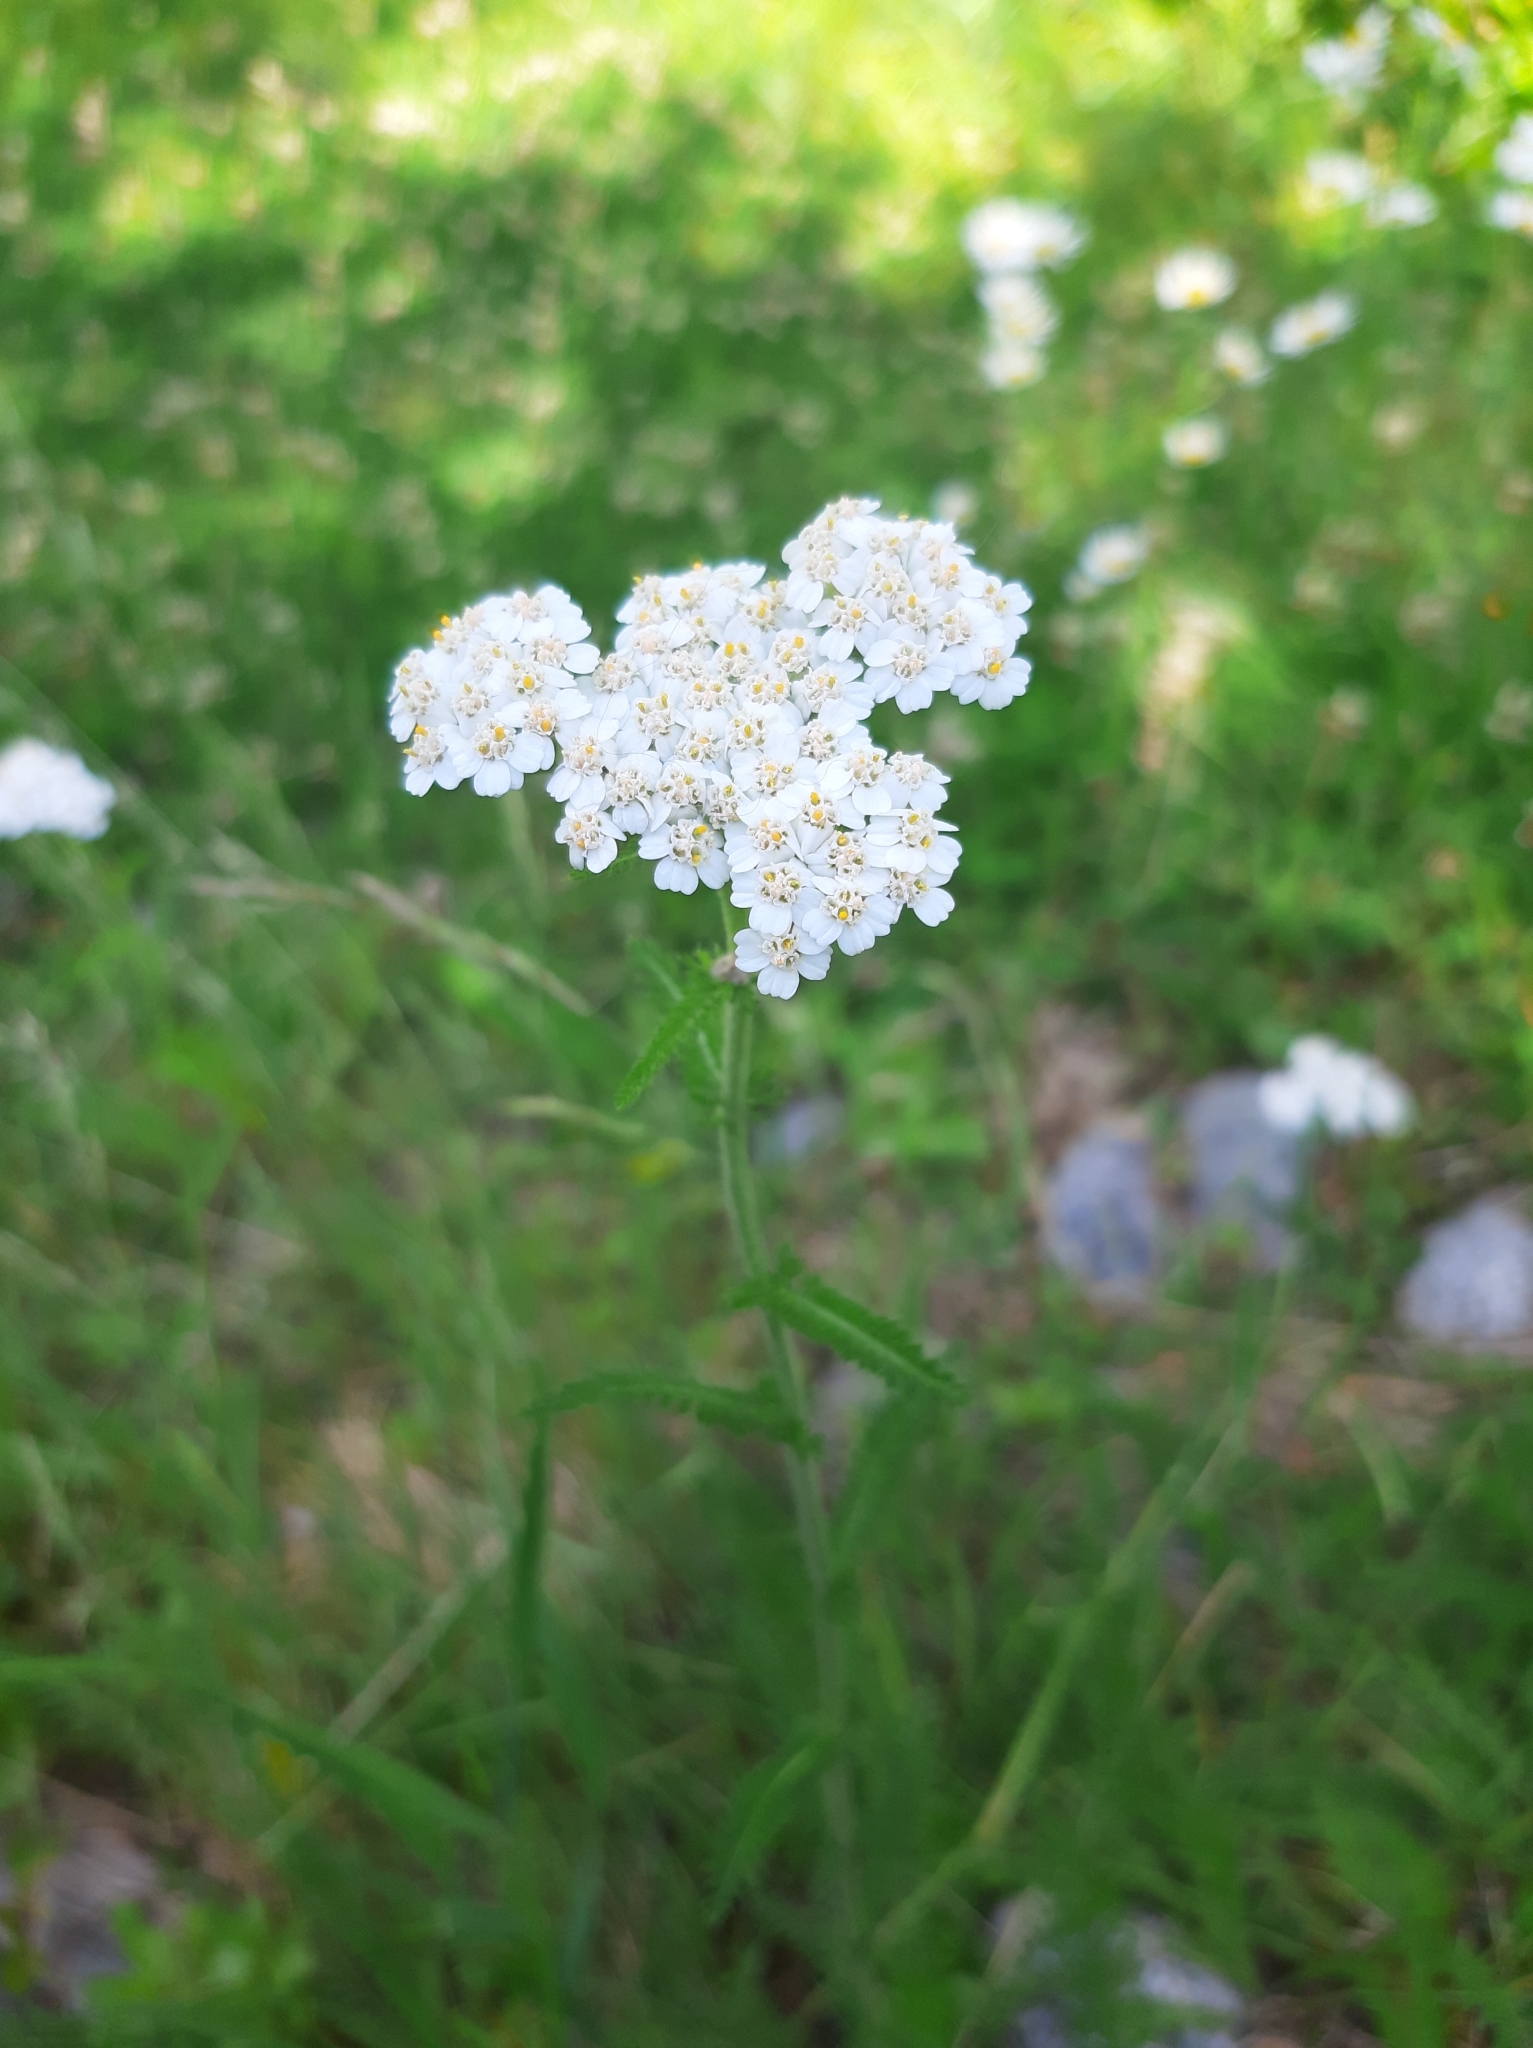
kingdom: Plantae
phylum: Tracheophyta
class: Magnoliopsida
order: Asterales
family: Asteraceae
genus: Achillea
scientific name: Achillea millefolium
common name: Yarrow
